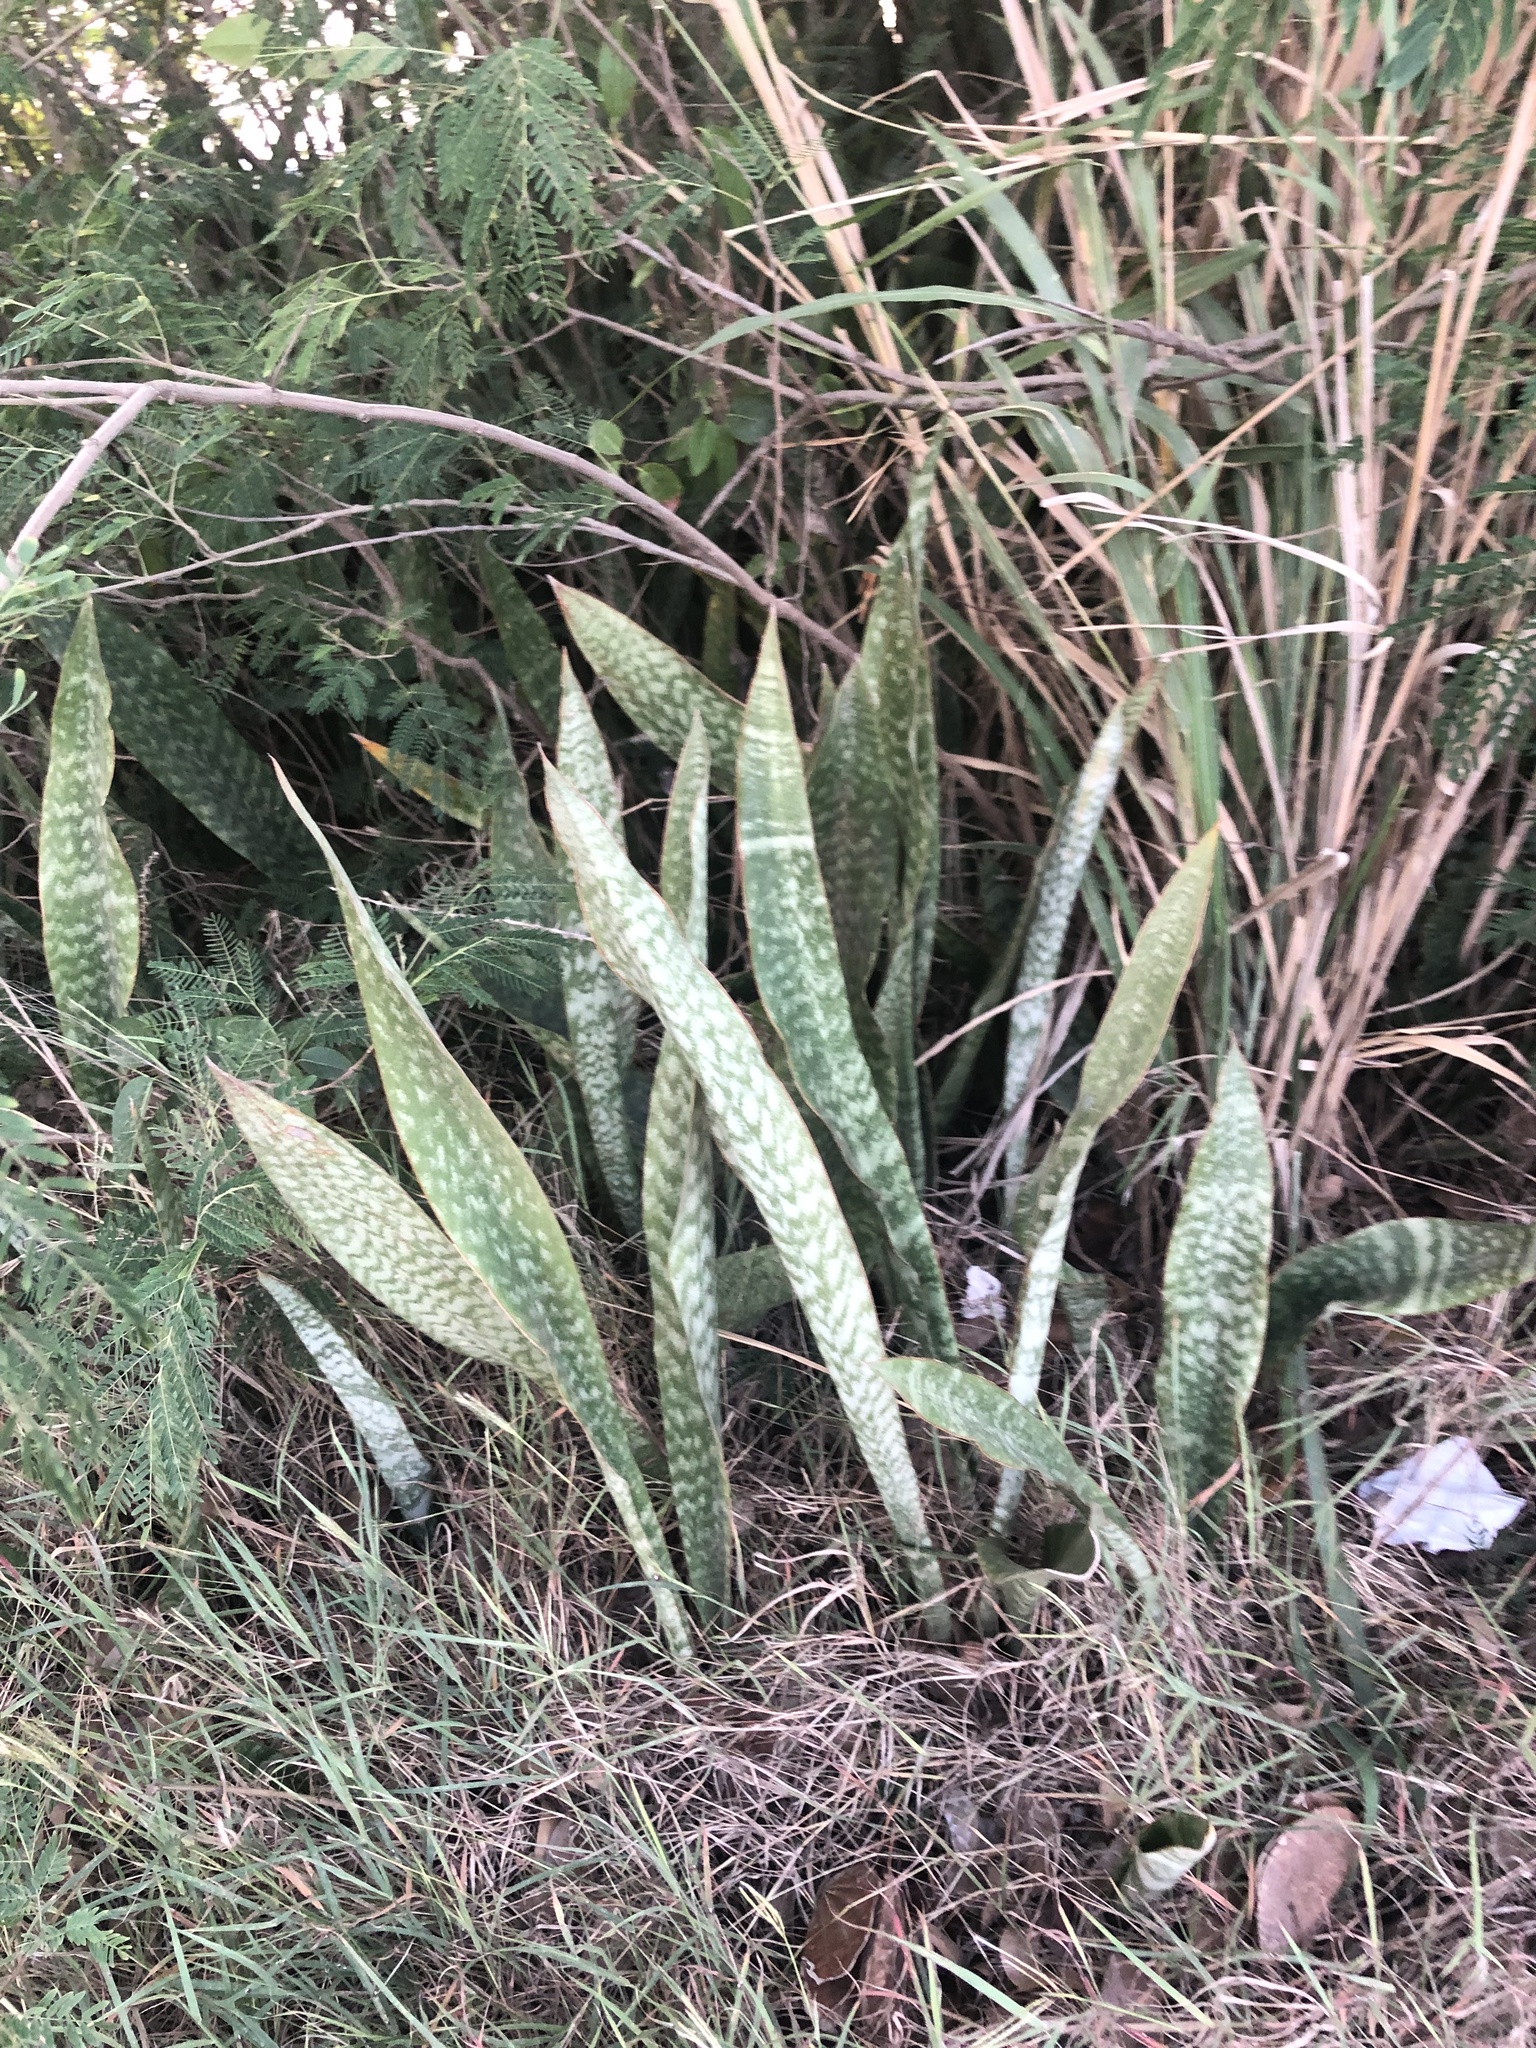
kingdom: Plantae
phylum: Tracheophyta
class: Liliopsida
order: Asparagales
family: Asparagaceae
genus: Dracaena
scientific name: Dracaena hyacinthoides
